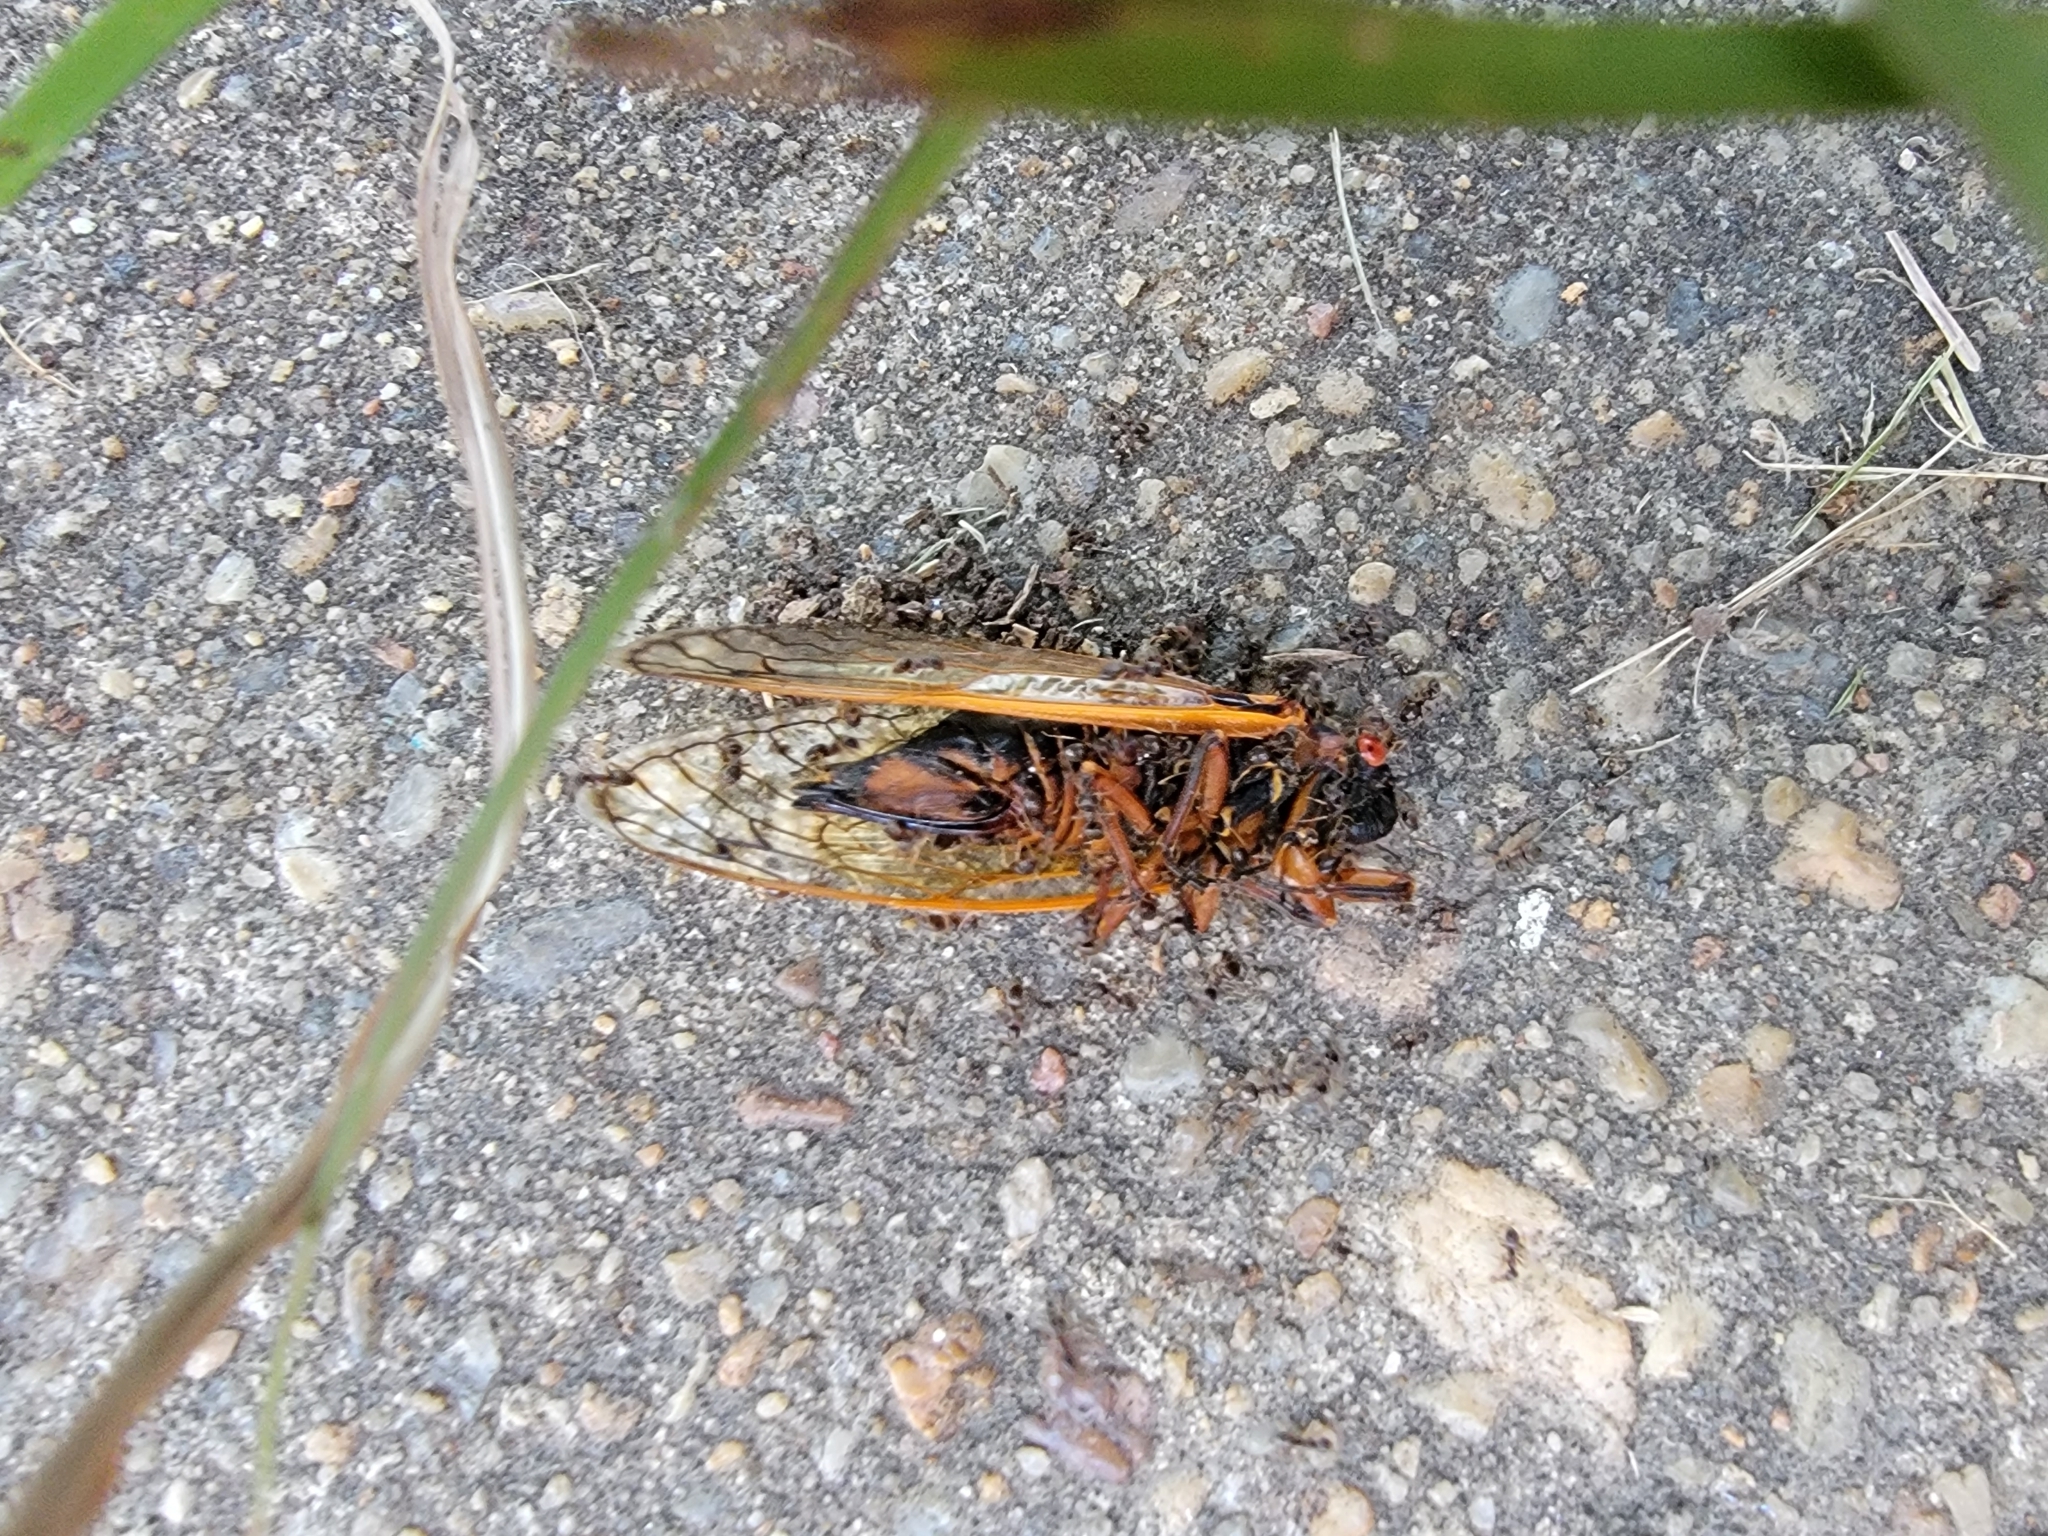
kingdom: Animalia
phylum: Arthropoda
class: Insecta
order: Hemiptera
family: Cicadidae
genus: Magicicada
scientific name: Magicicada septendecim
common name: Periodical cicada
